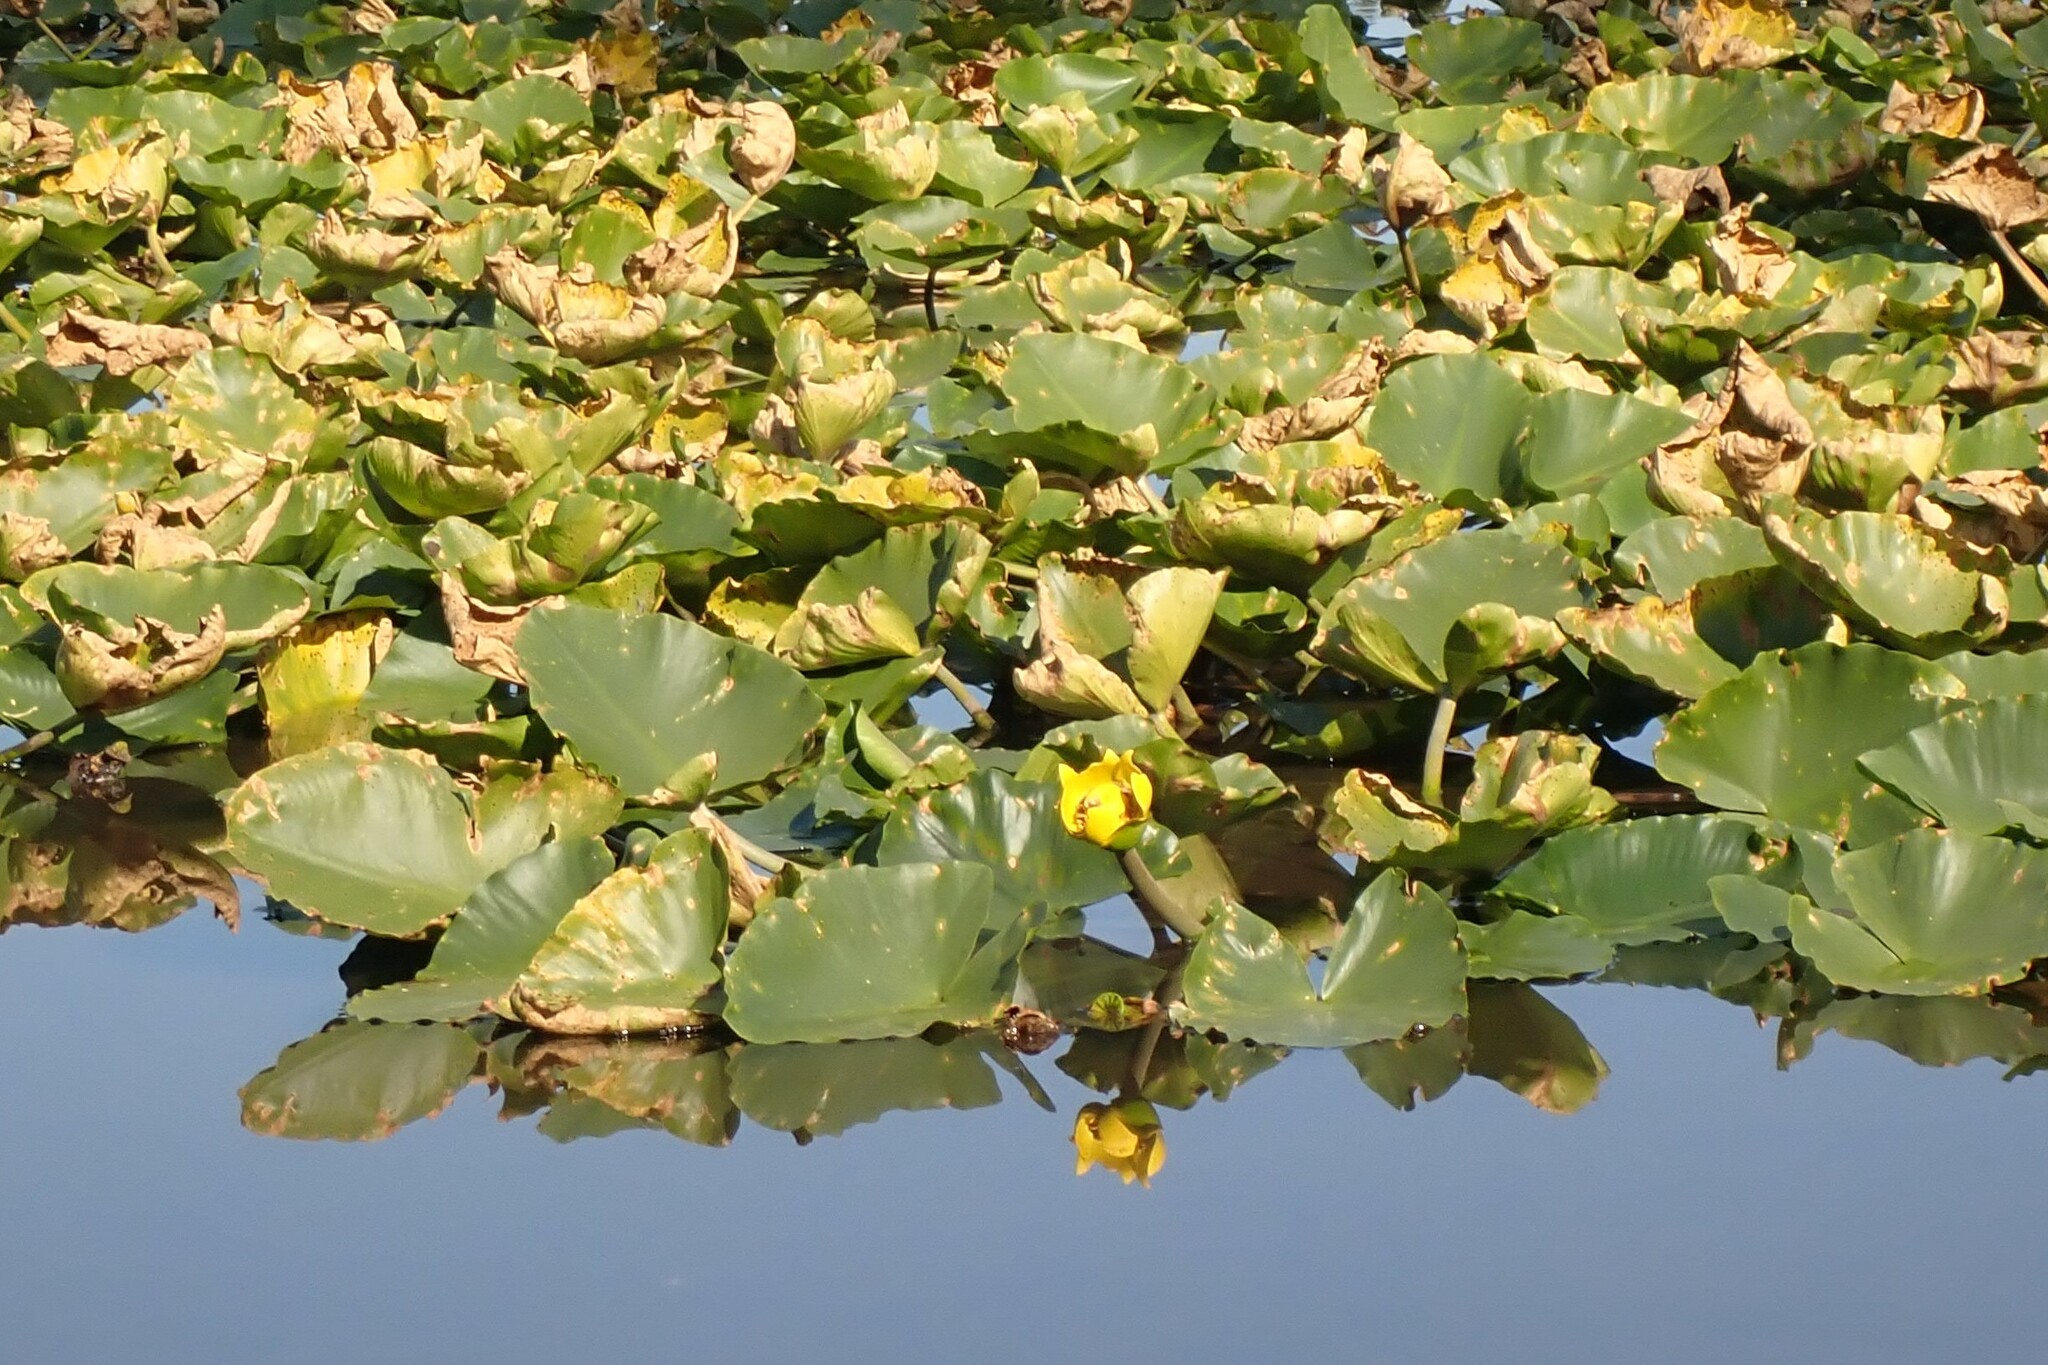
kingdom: Plantae
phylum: Tracheophyta
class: Magnoliopsida
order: Nymphaeales
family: Nymphaeaceae
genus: Nuphar
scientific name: Nuphar polysepala
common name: Rocky mountain cow-lily
